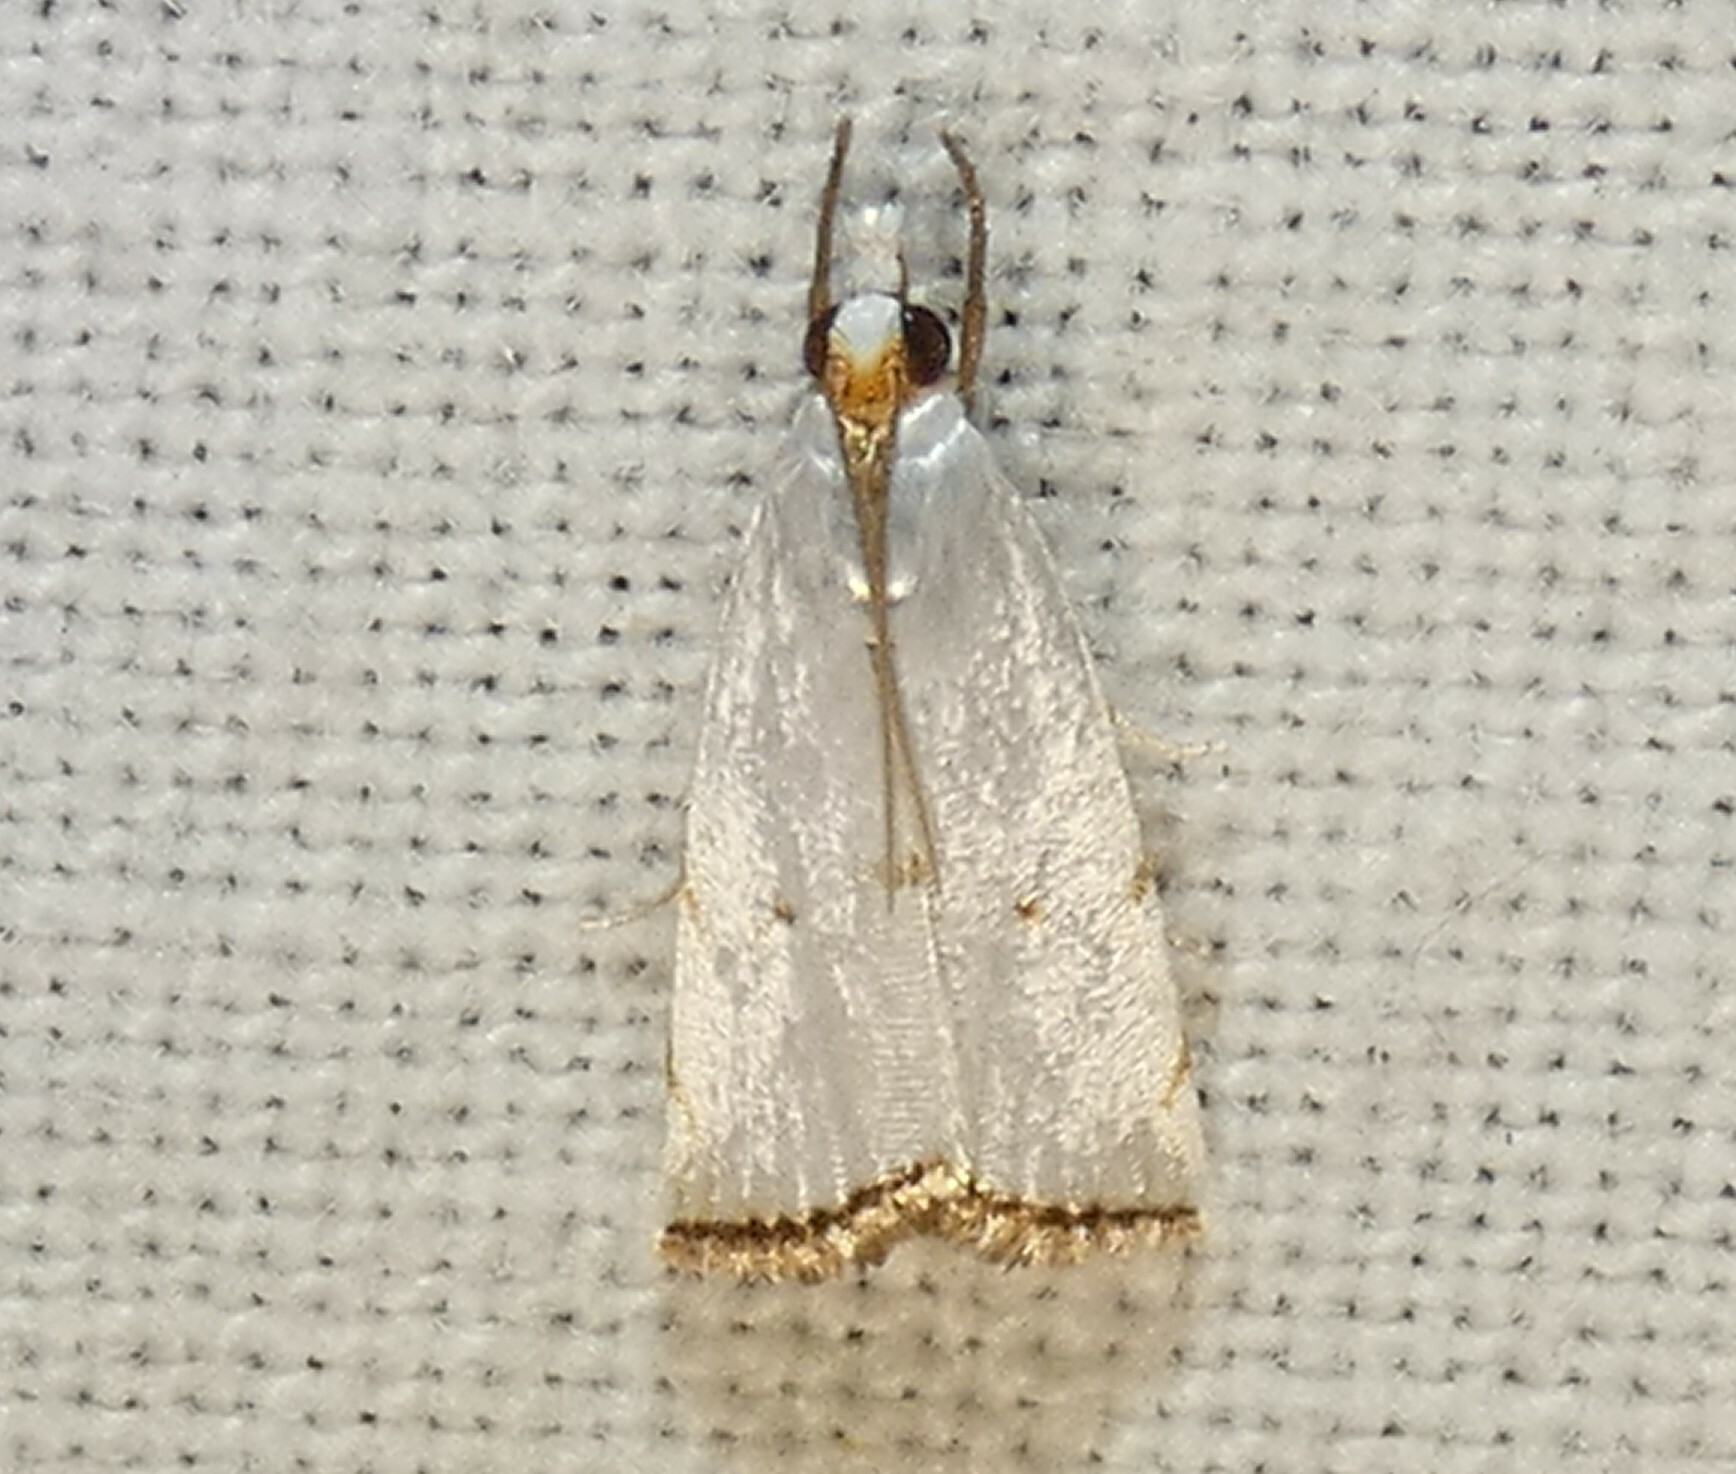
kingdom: Animalia
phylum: Arthropoda
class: Insecta
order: Lepidoptera
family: Crambidae
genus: Argyria
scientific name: Argyria pusillalis
